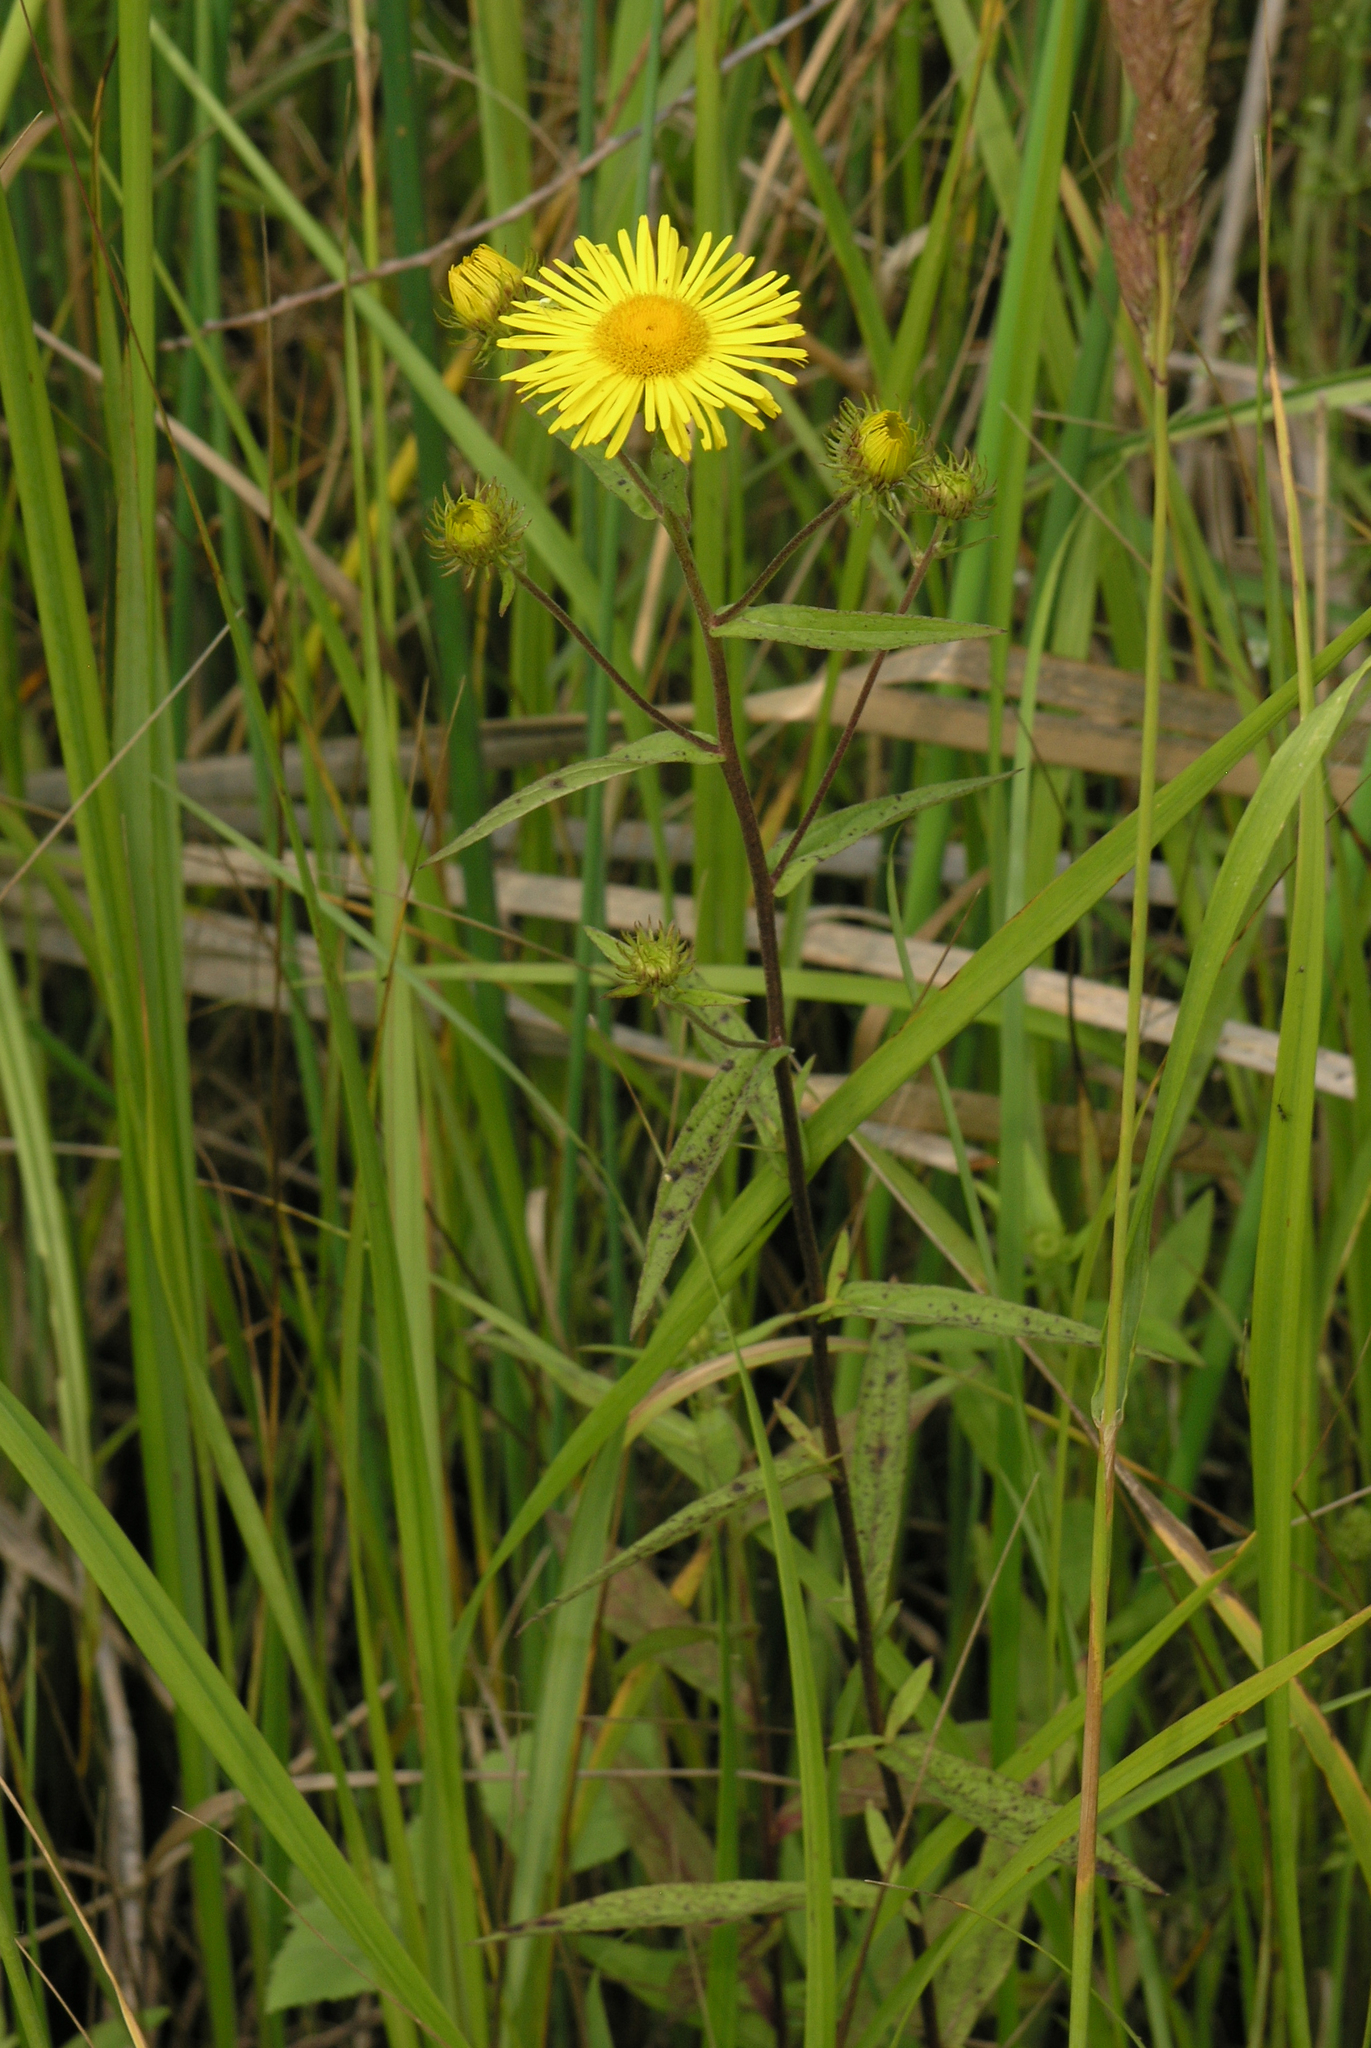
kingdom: Plantae
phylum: Tracheophyta
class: Magnoliopsida
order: Asterales
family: Asteraceae
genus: Inula
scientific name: Inula japonica
